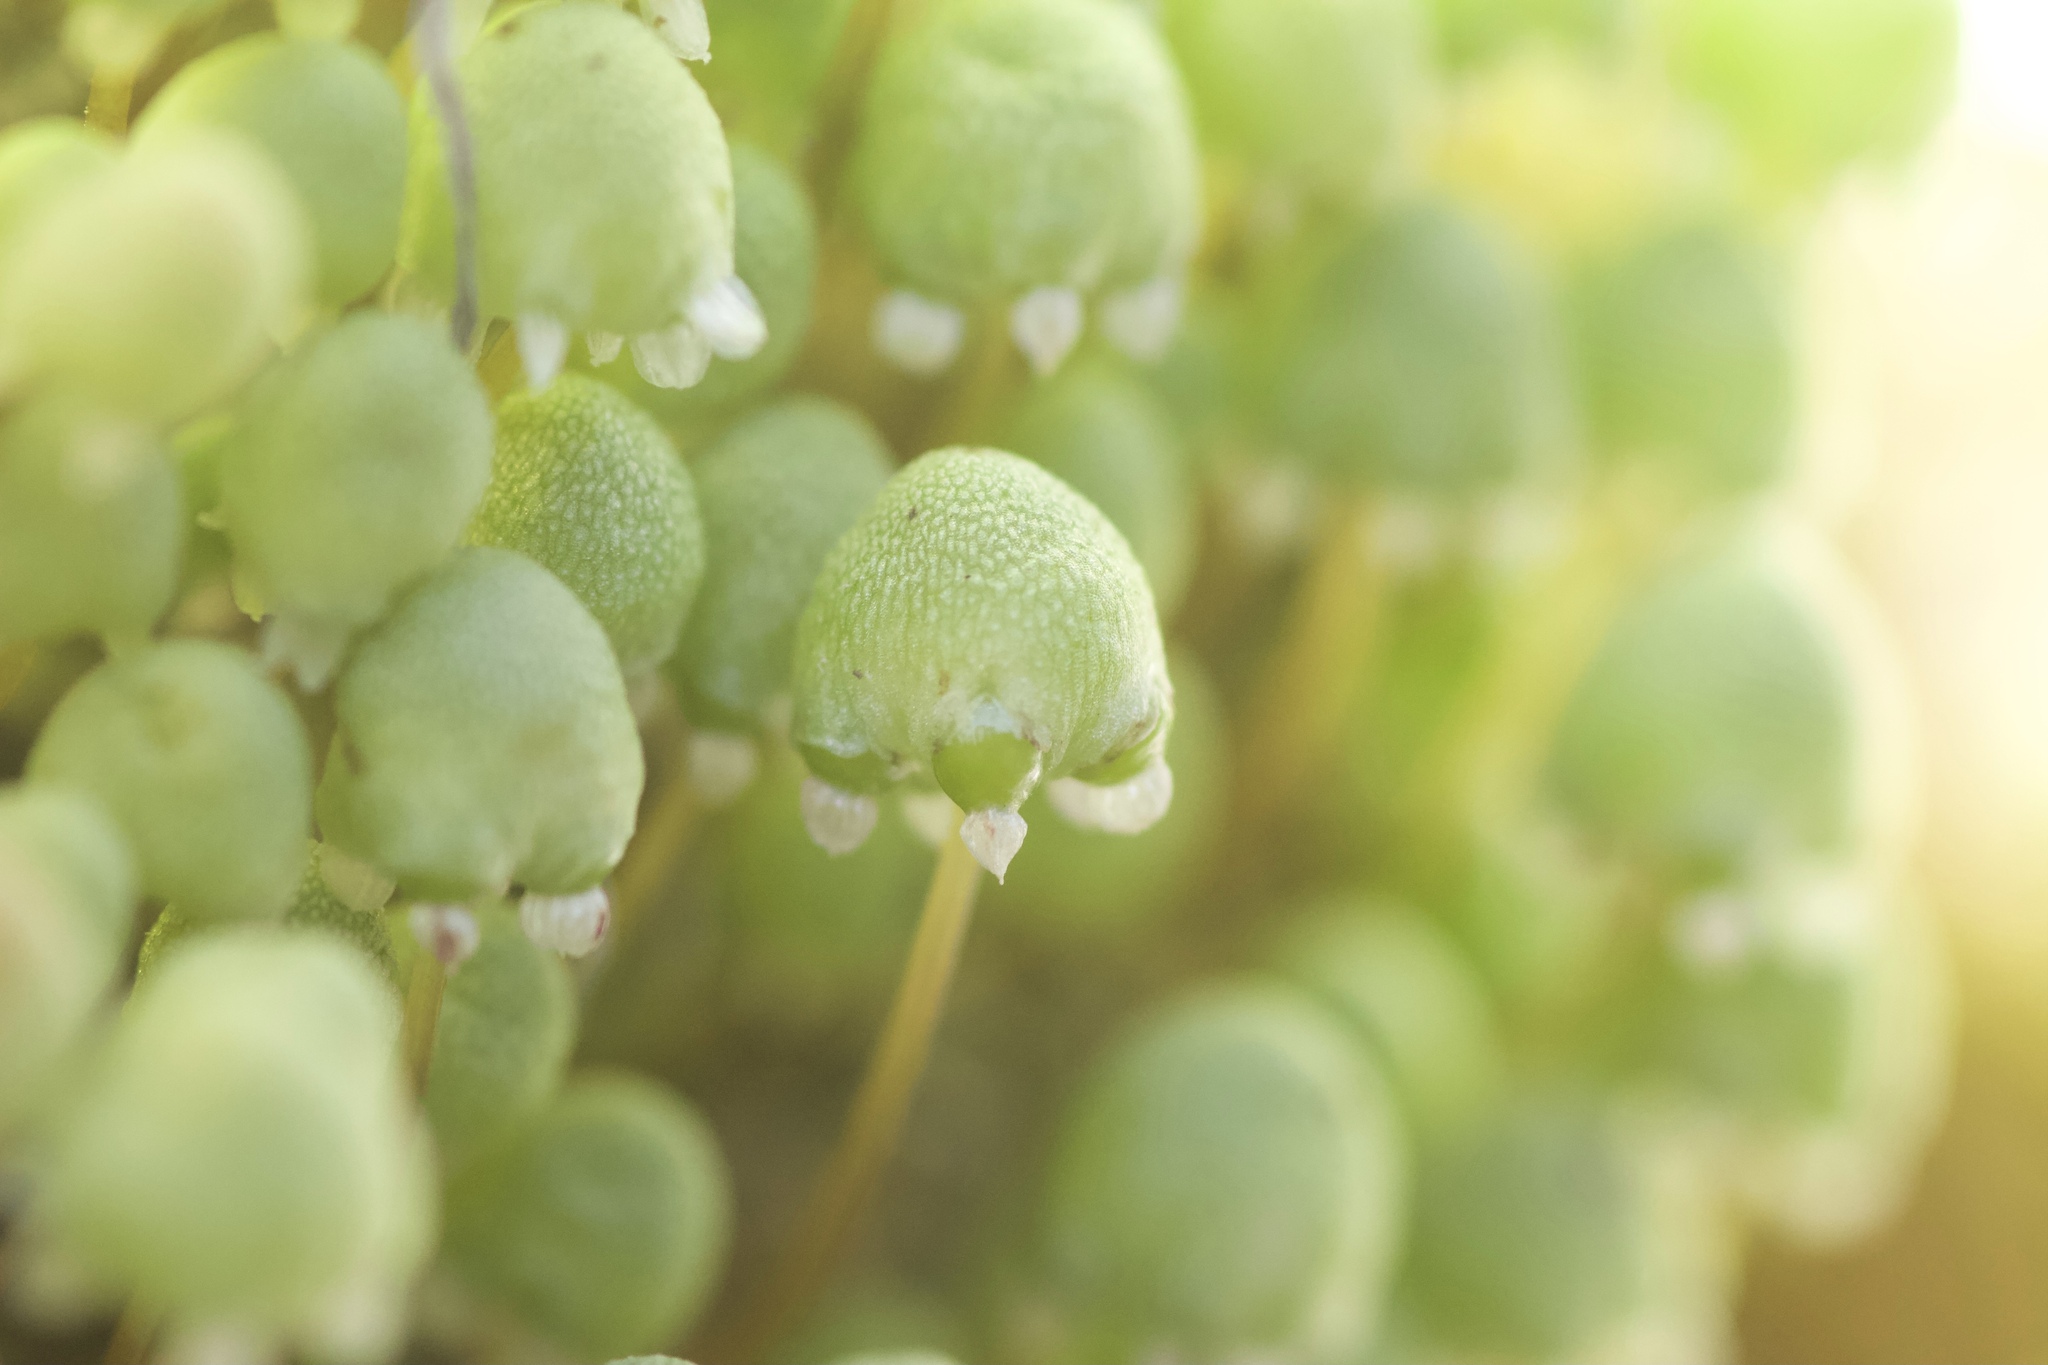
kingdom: Plantae
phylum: Marchantiophyta
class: Marchantiopsida
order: Marchantiales
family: Aytoniaceae
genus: Asterella
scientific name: Asterella palmeri
